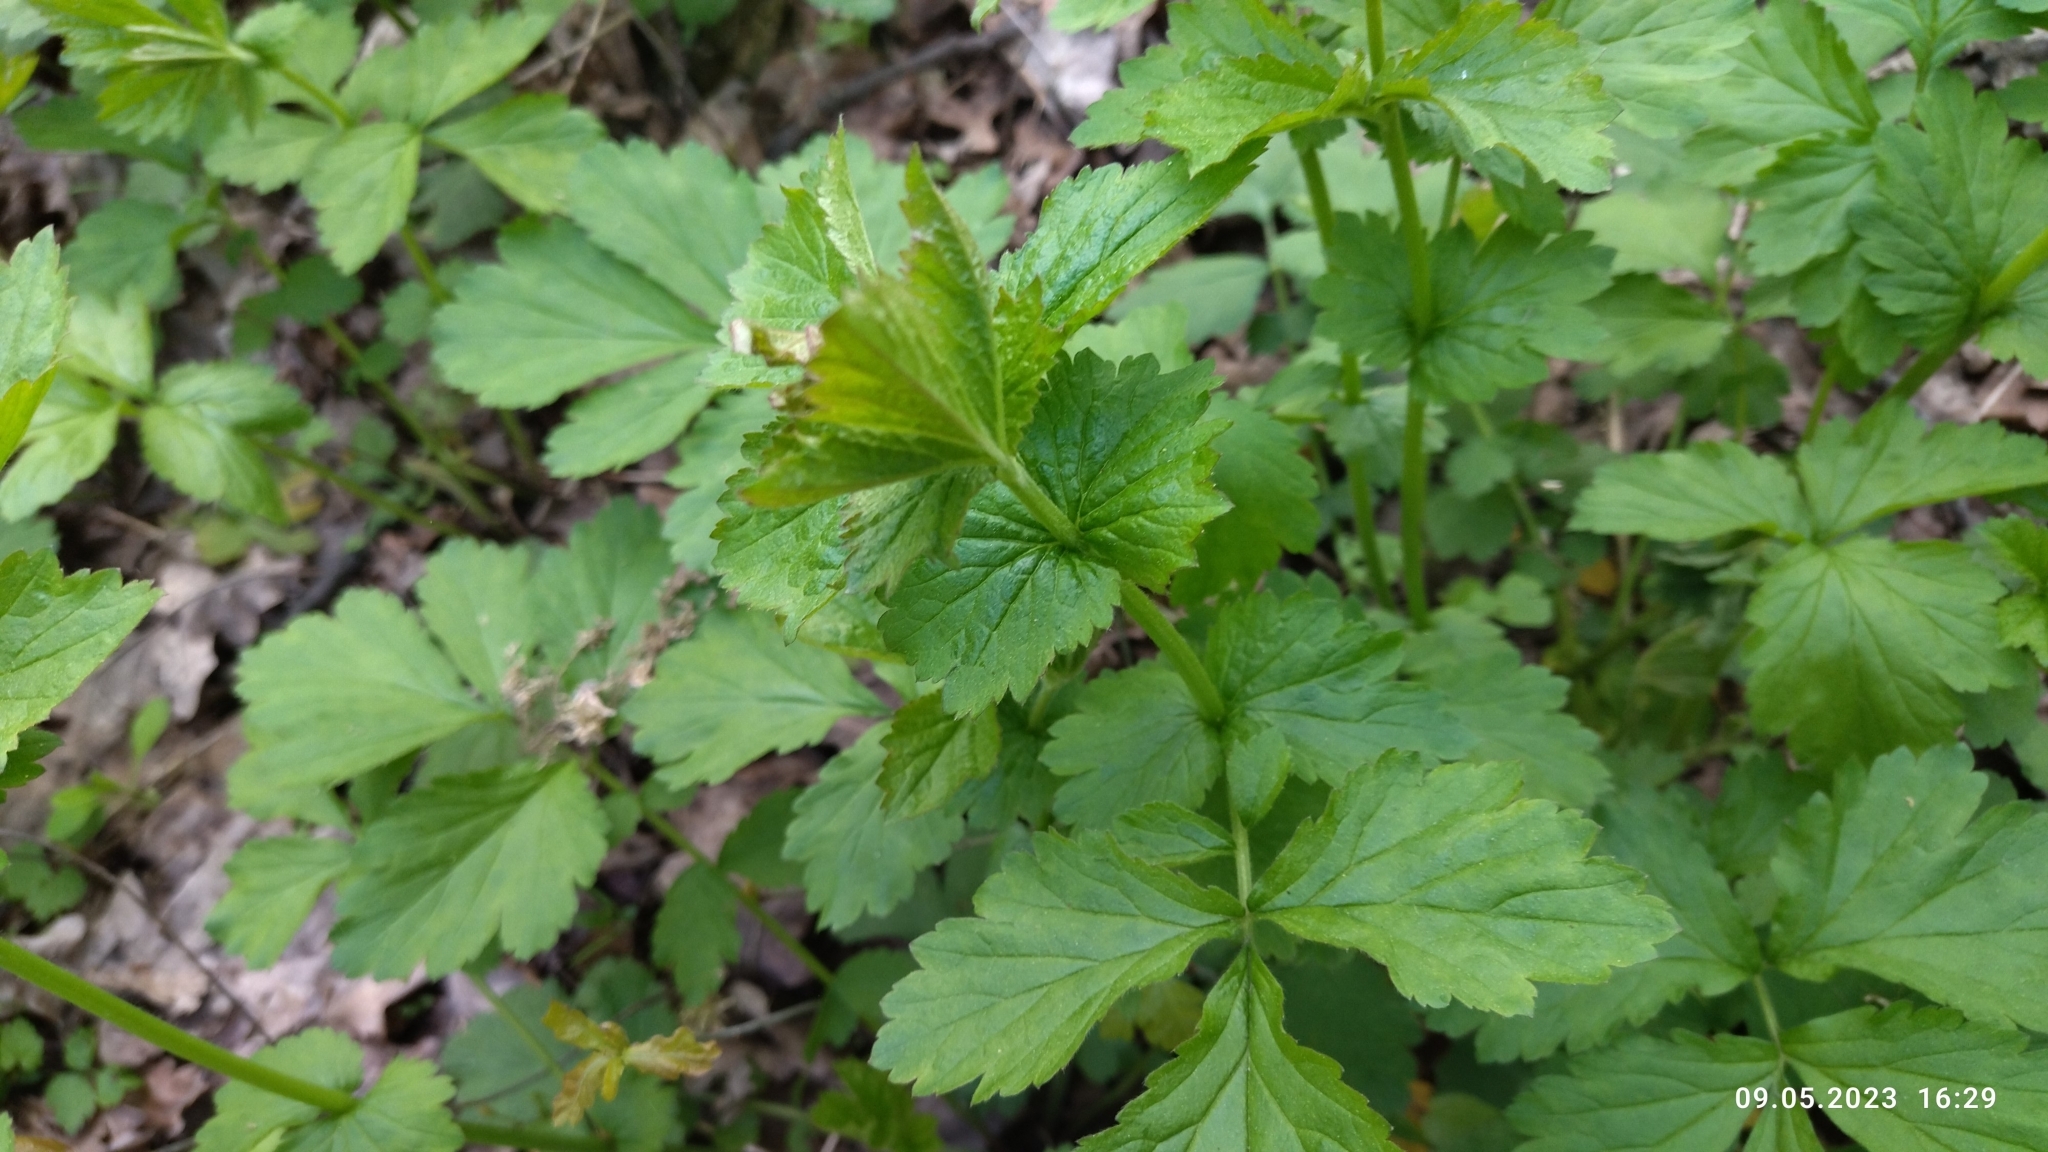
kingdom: Plantae
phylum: Tracheophyta
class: Magnoliopsida
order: Rosales
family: Rosaceae
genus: Geum
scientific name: Geum urbanum
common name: Wood avens
